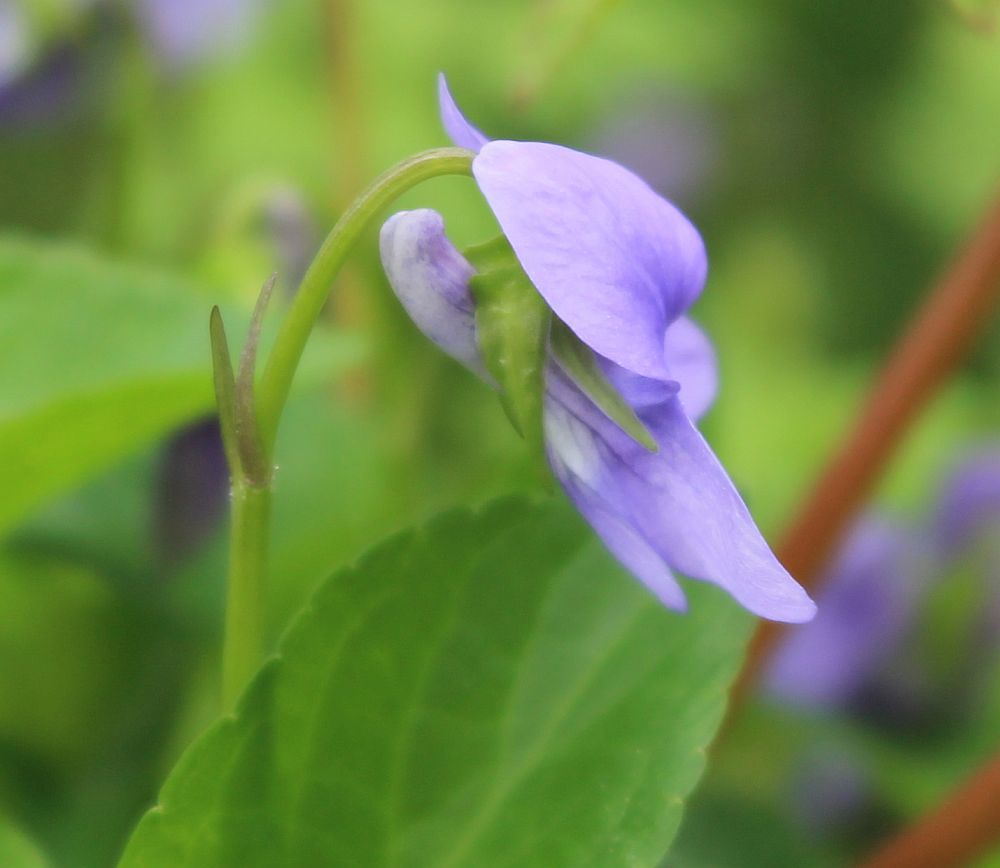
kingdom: Plantae
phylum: Tracheophyta
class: Magnoliopsida
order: Malpighiales
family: Violaceae
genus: Viola
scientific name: Viola riviniana
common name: Common dog-violet
